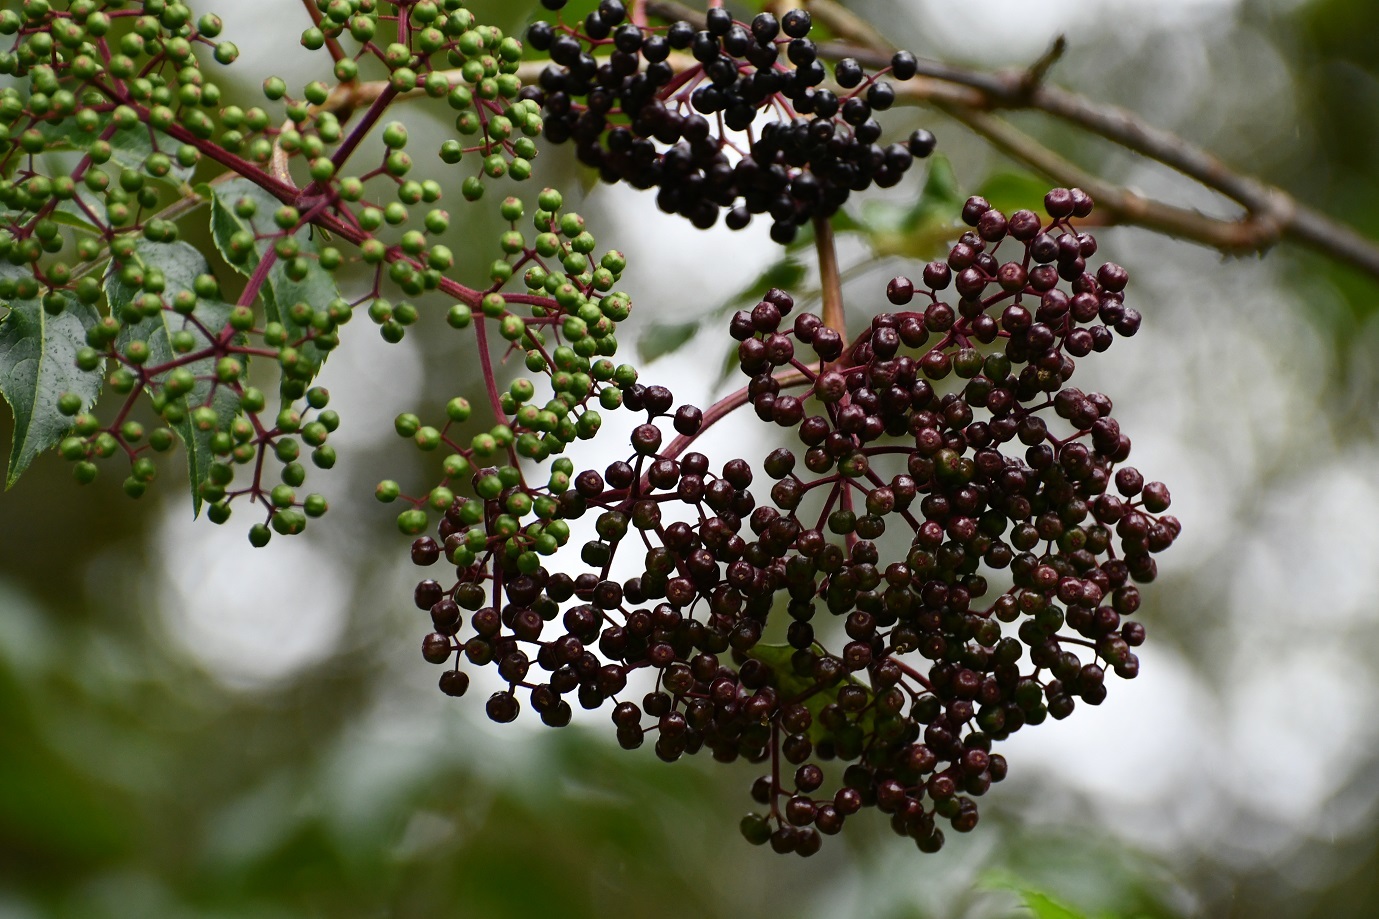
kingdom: Plantae
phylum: Tracheophyta
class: Magnoliopsida
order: Dipsacales
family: Viburnaceae
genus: Sambucus
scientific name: Sambucus nigra
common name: Elder
